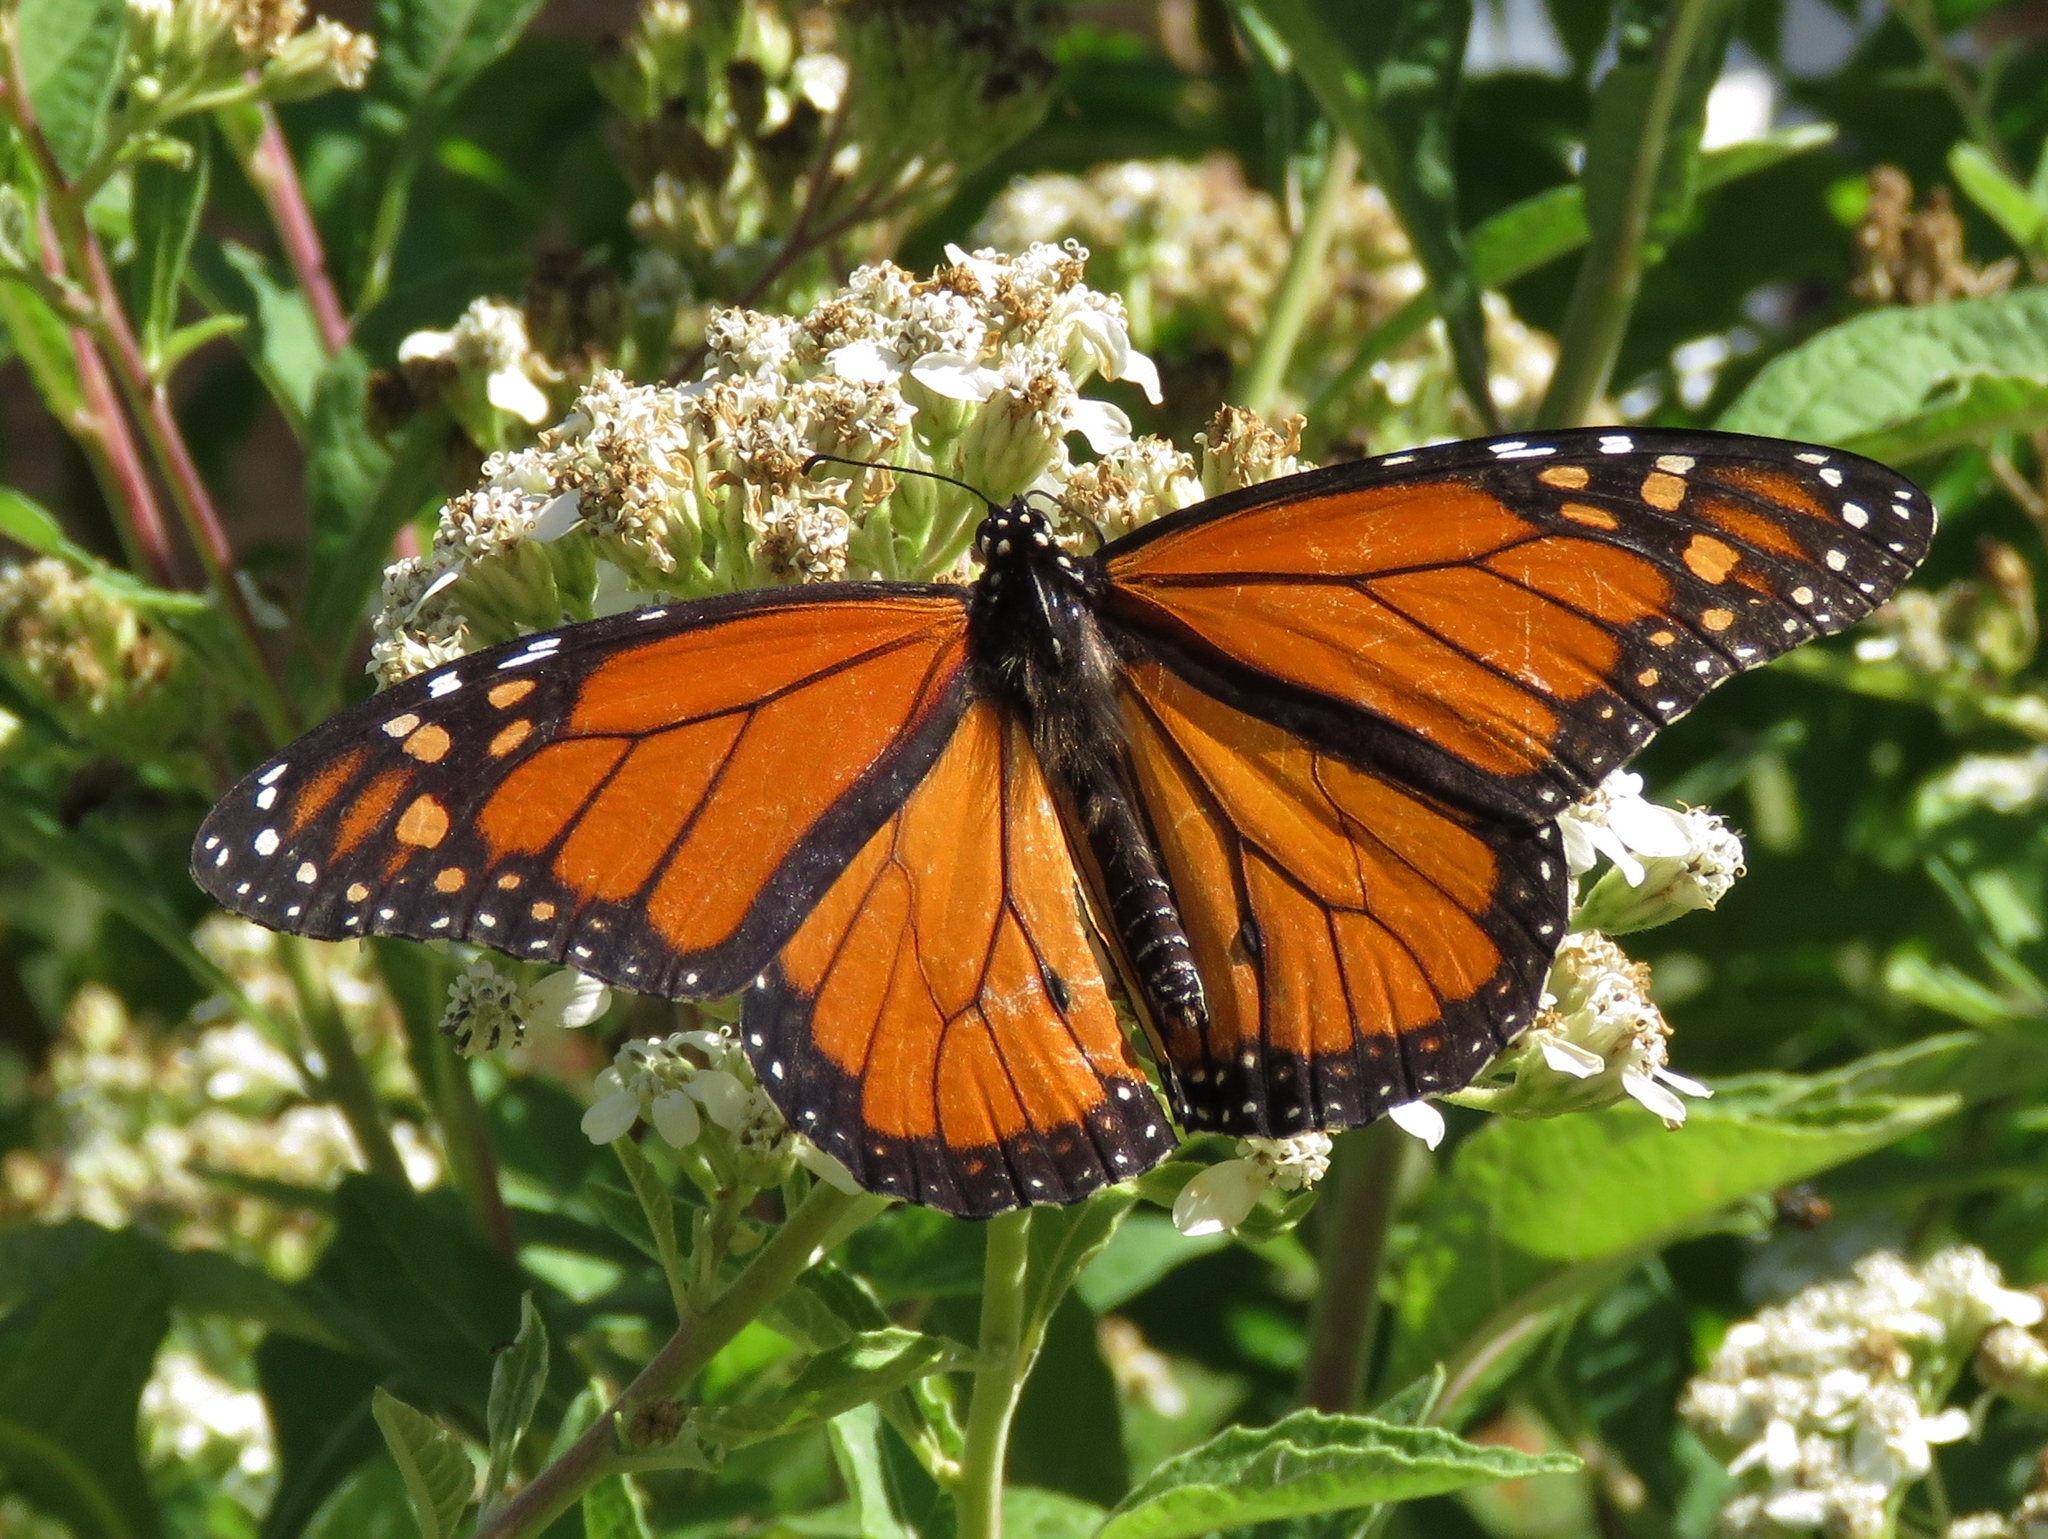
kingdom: Animalia
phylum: Arthropoda
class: Insecta
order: Lepidoptera
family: Nymphalidae
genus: Danaus
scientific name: Danaus plexippus
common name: Monarch
